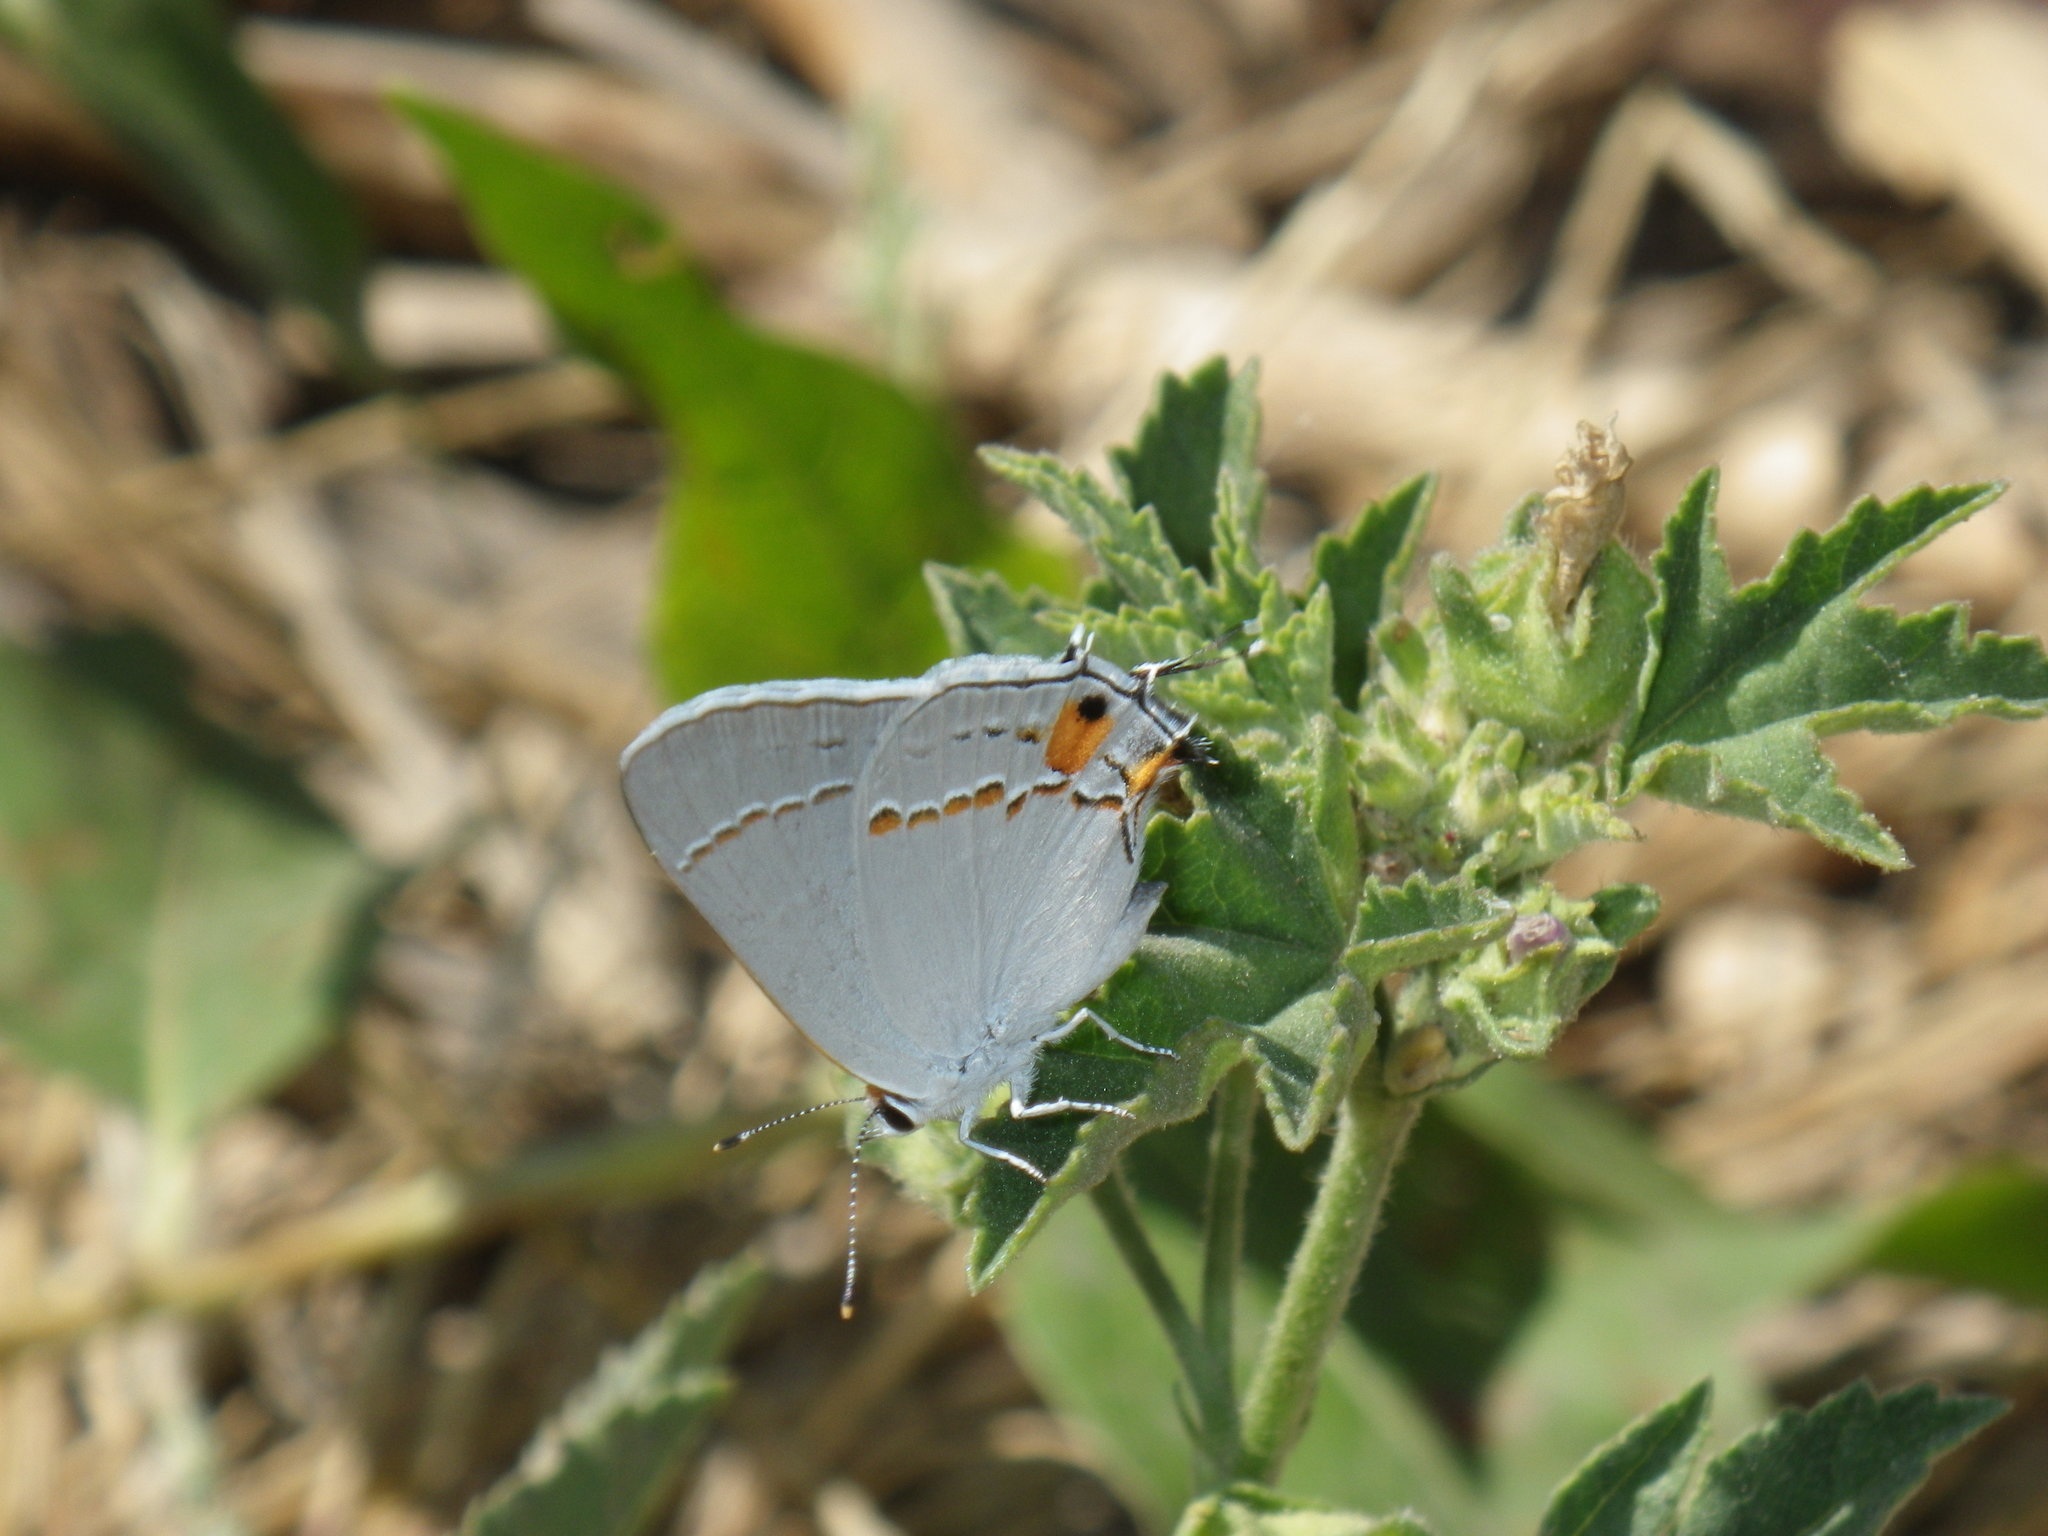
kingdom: Animalia
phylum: Arthropoda
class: Insecta
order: Lepidoptera
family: Lycaenidae
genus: Strymon
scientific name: Strymon melinus
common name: Gray hairstreak
